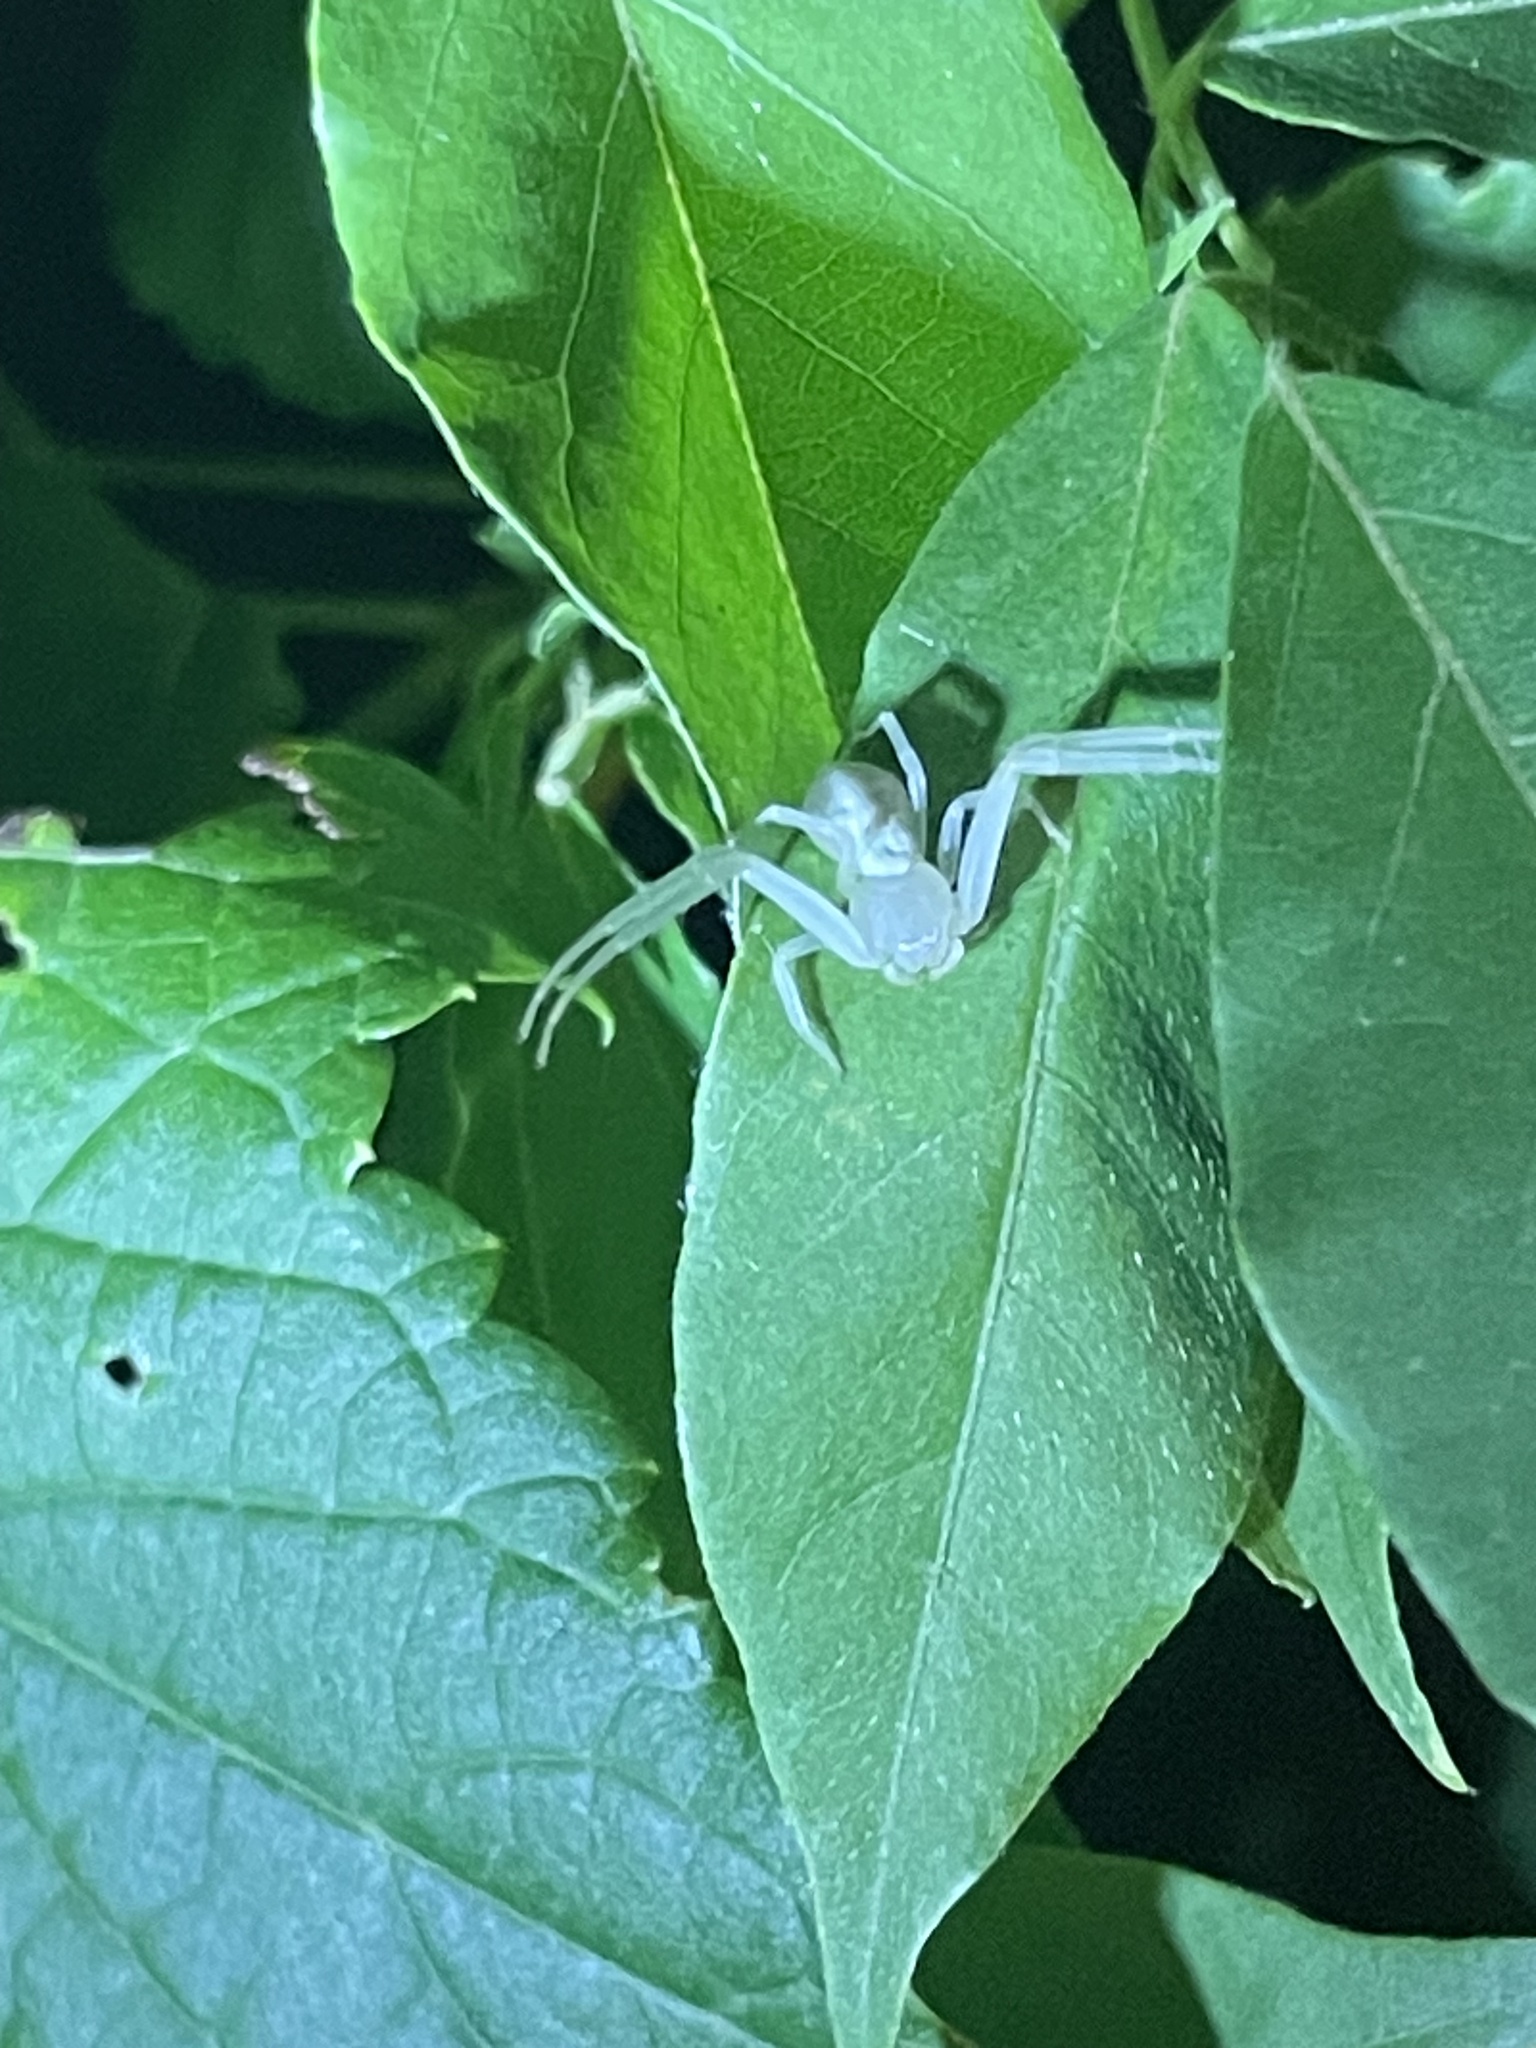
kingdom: Animalia
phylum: Arthropoda
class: Arachnida
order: Araneae
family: Thomisidae
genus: Misumessus
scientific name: Misumessus oblongus
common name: American green crab spider
